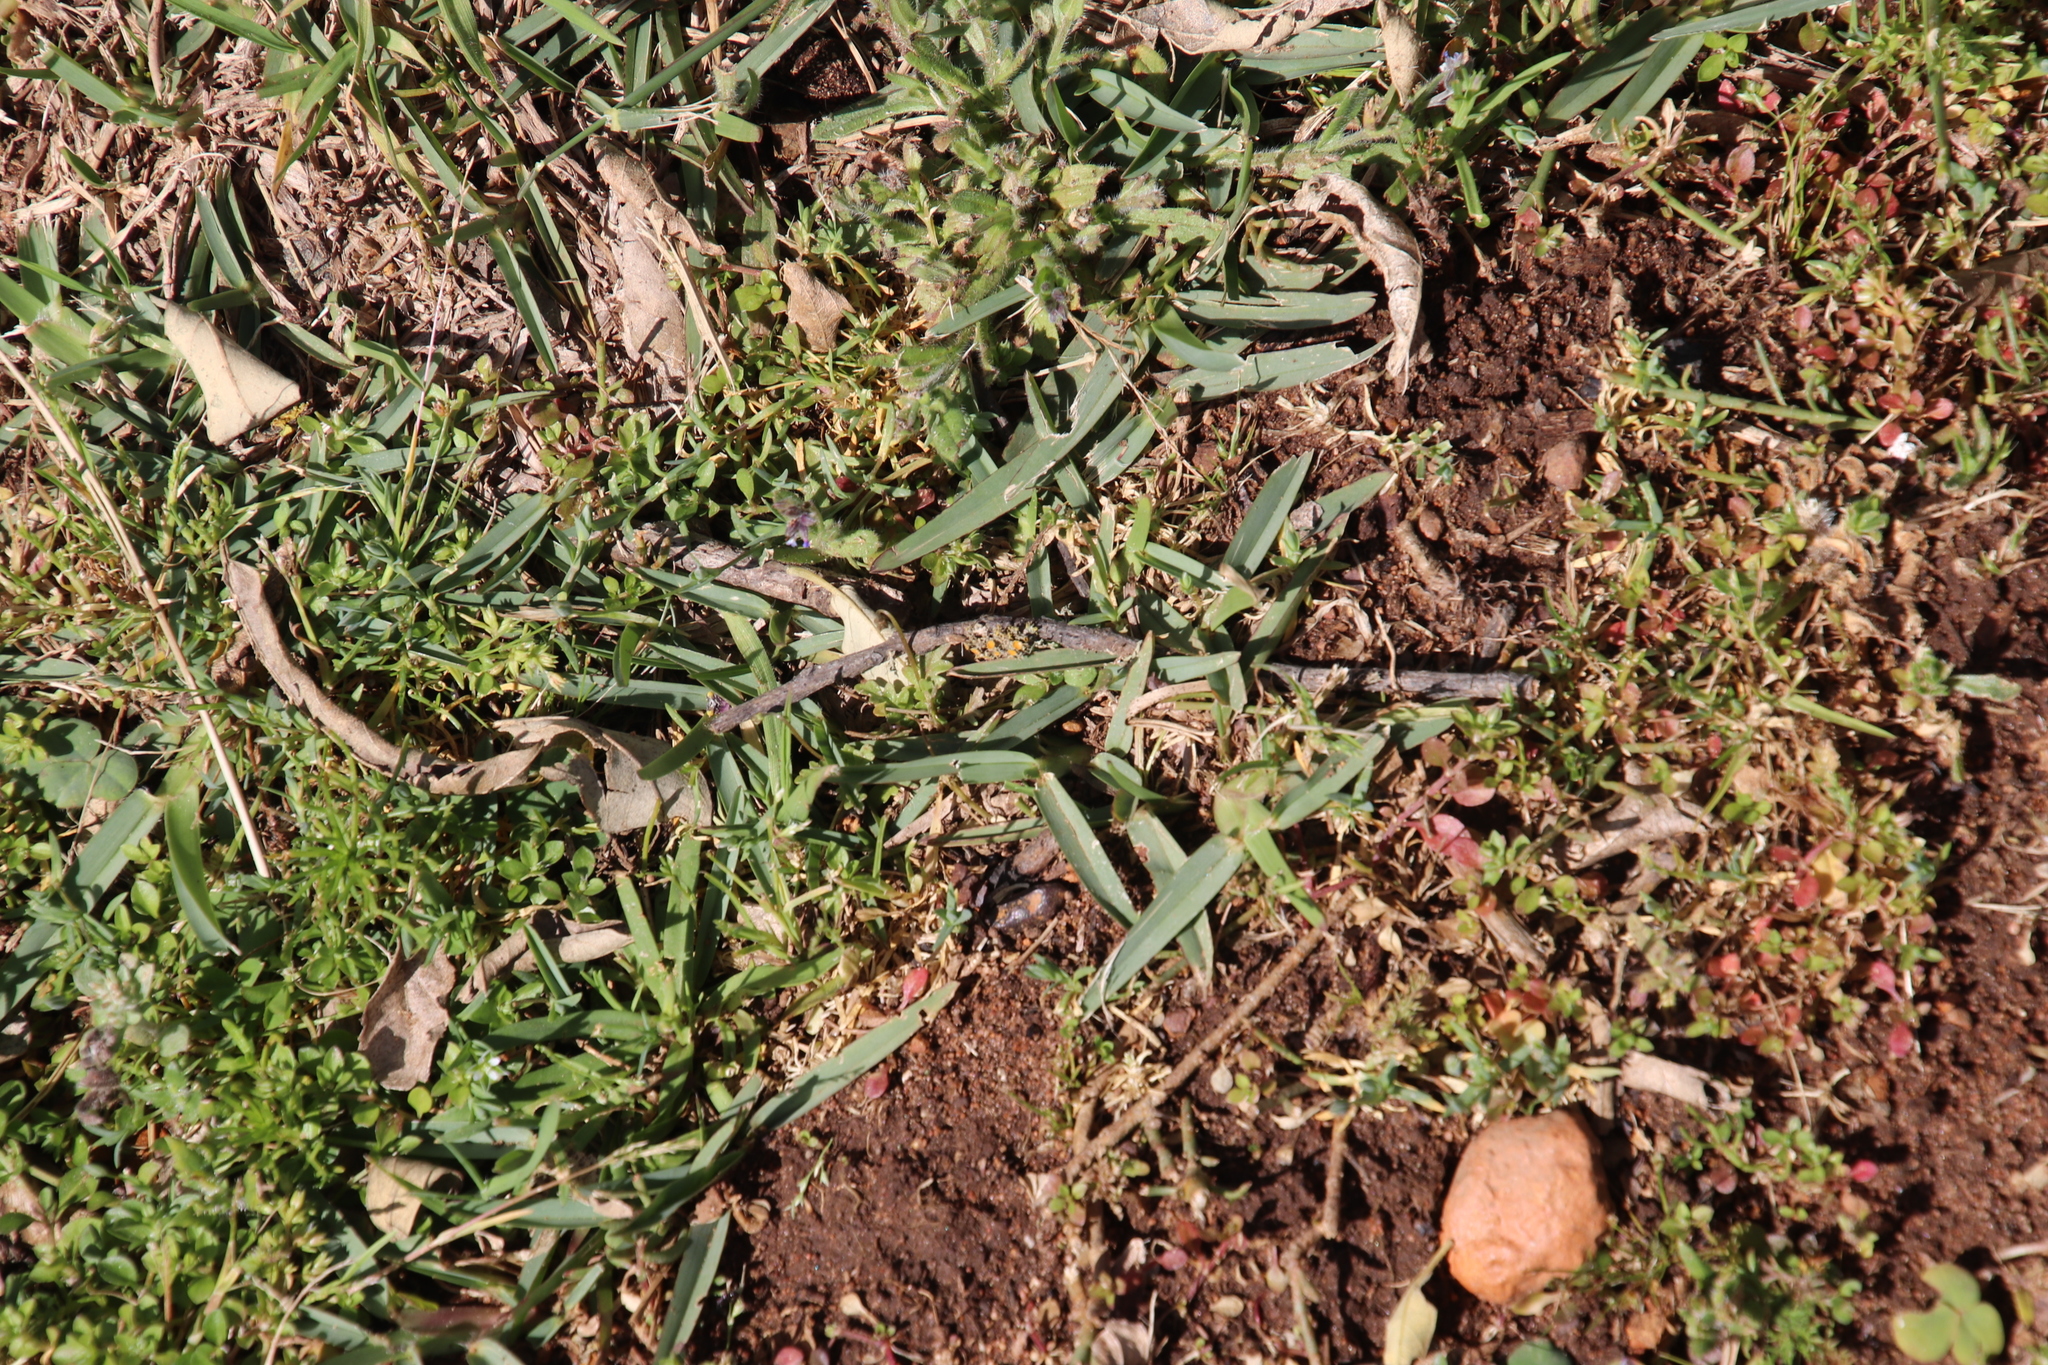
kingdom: Plantae
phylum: Tracheophyta
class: Liliopsida
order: Poales
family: Poaceae
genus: Stenotaphrum
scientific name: Stenotaphrum secundatum
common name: St. augustine grass
